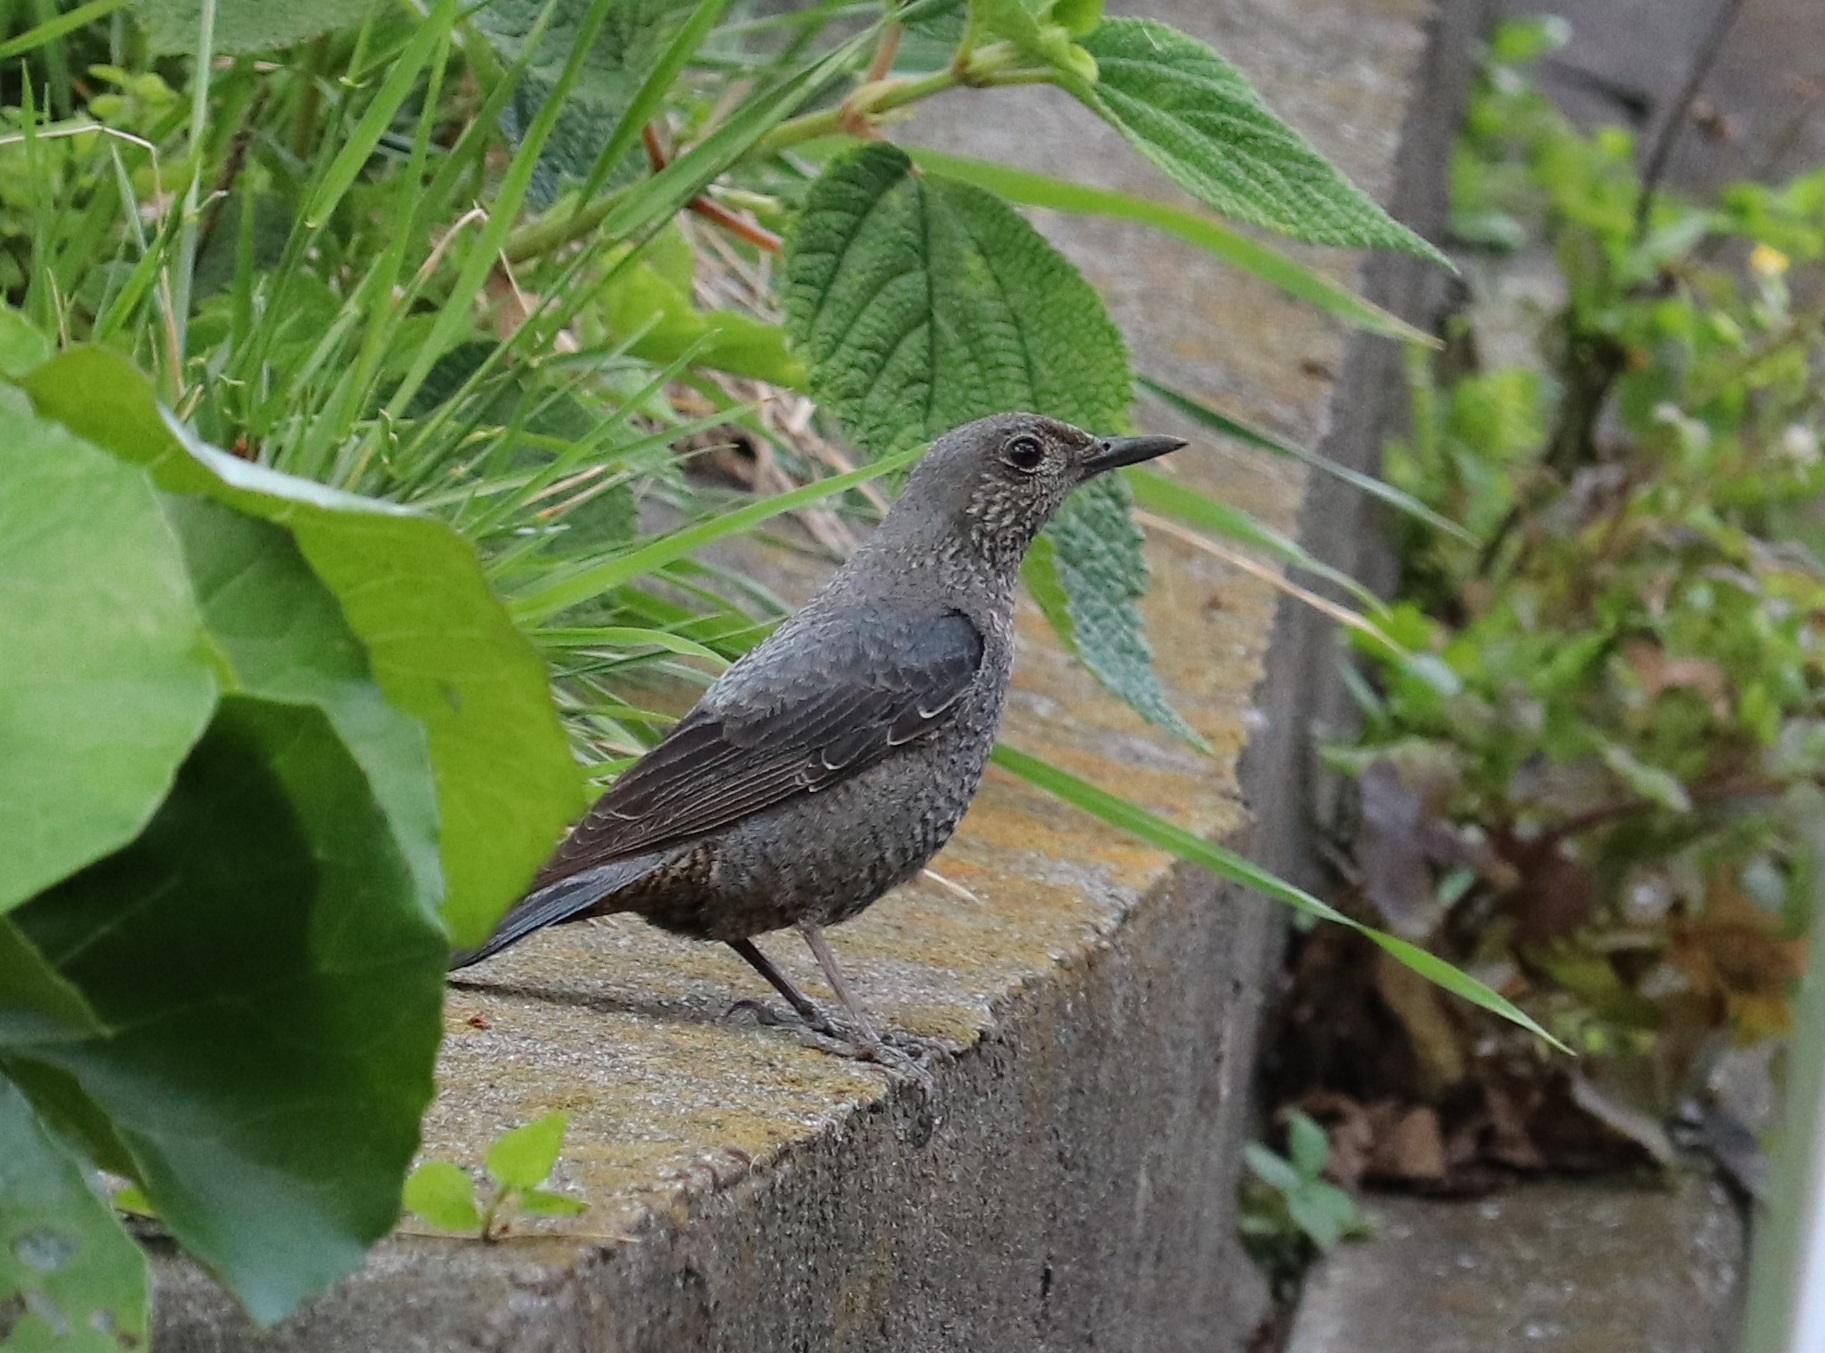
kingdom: Animalia
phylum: Chordata
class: Aves
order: Passeriformes
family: Muscicapidae
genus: Monticola
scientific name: Monticola solitarius
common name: Blue rock thrush
